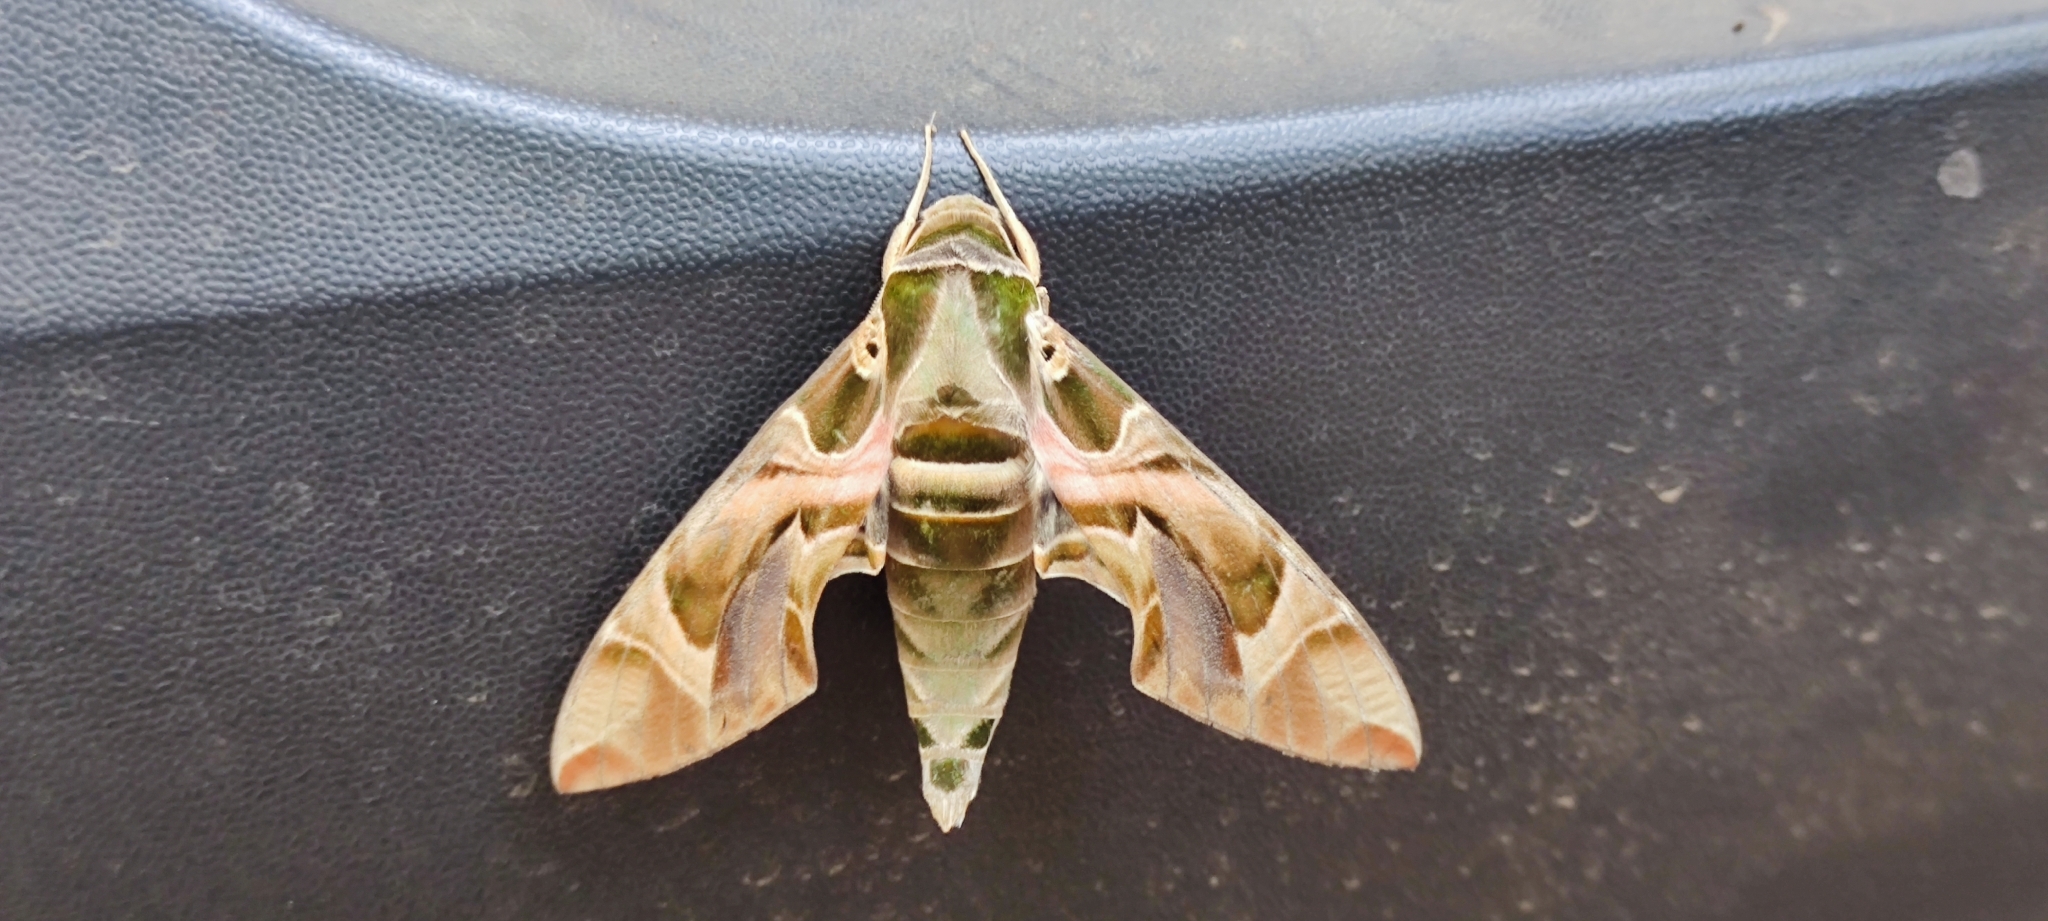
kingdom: Animalia
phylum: Arthropoda
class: Insecta
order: Lepidoptera
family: Sphingidae
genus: Daphnis
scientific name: Daphnis nerii
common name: Oleander hawk-moth
